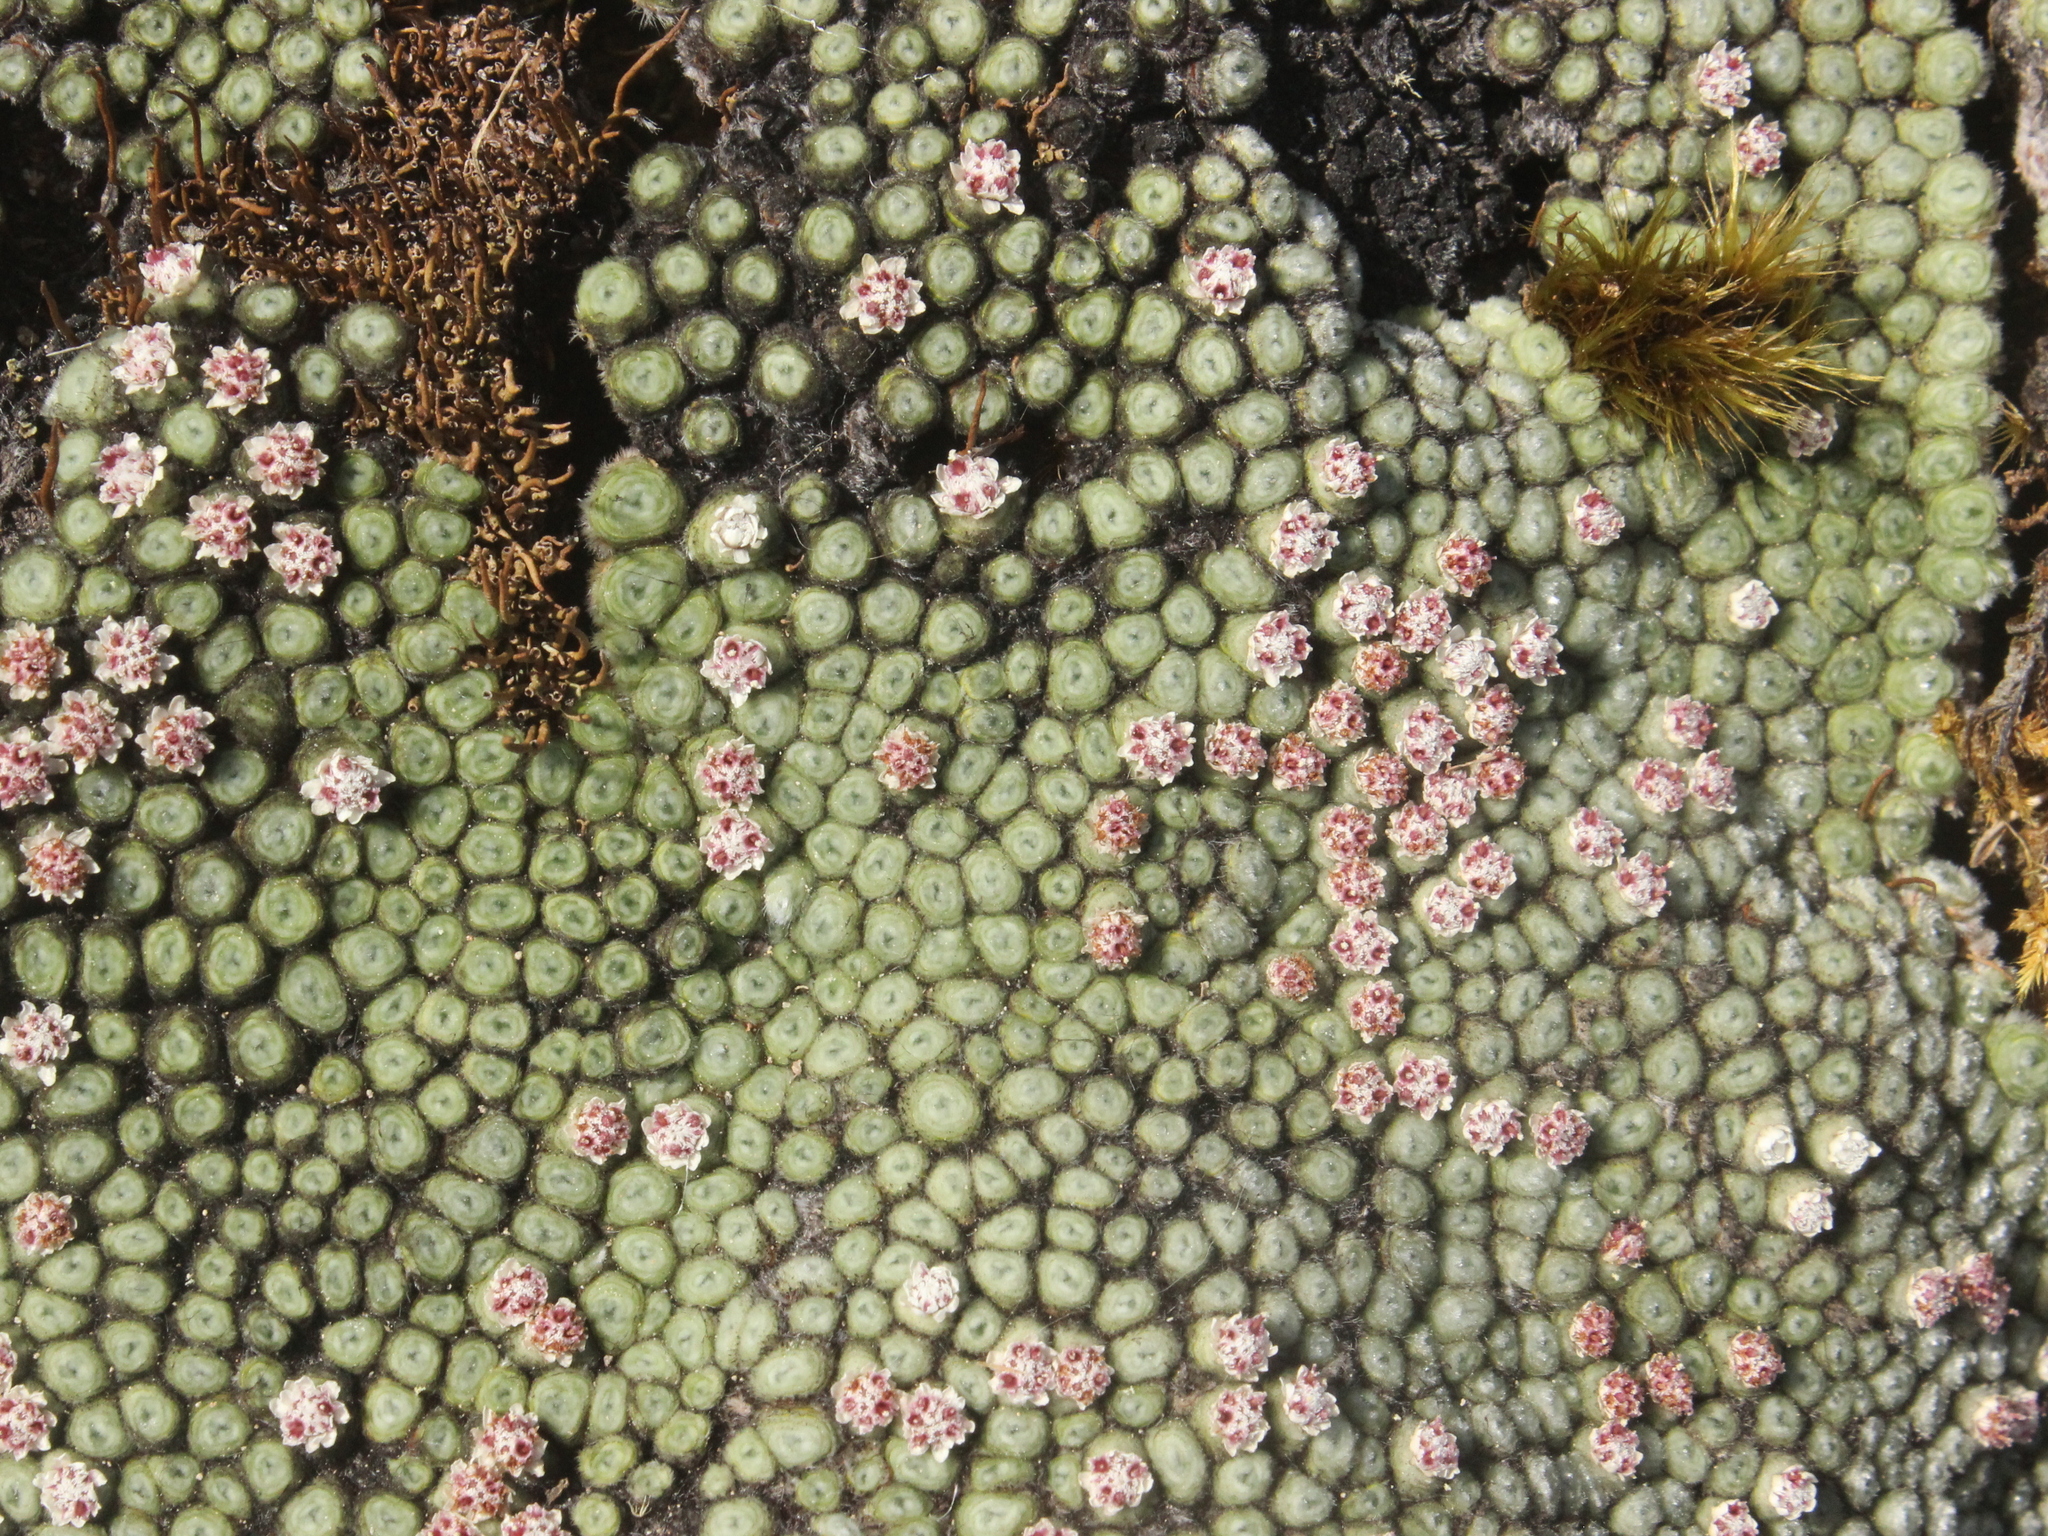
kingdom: Plantae
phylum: Tracheophyta
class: Magnoliopsida
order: Asterales
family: Asteraceae
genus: Raoulia
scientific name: Raoulia rubra
